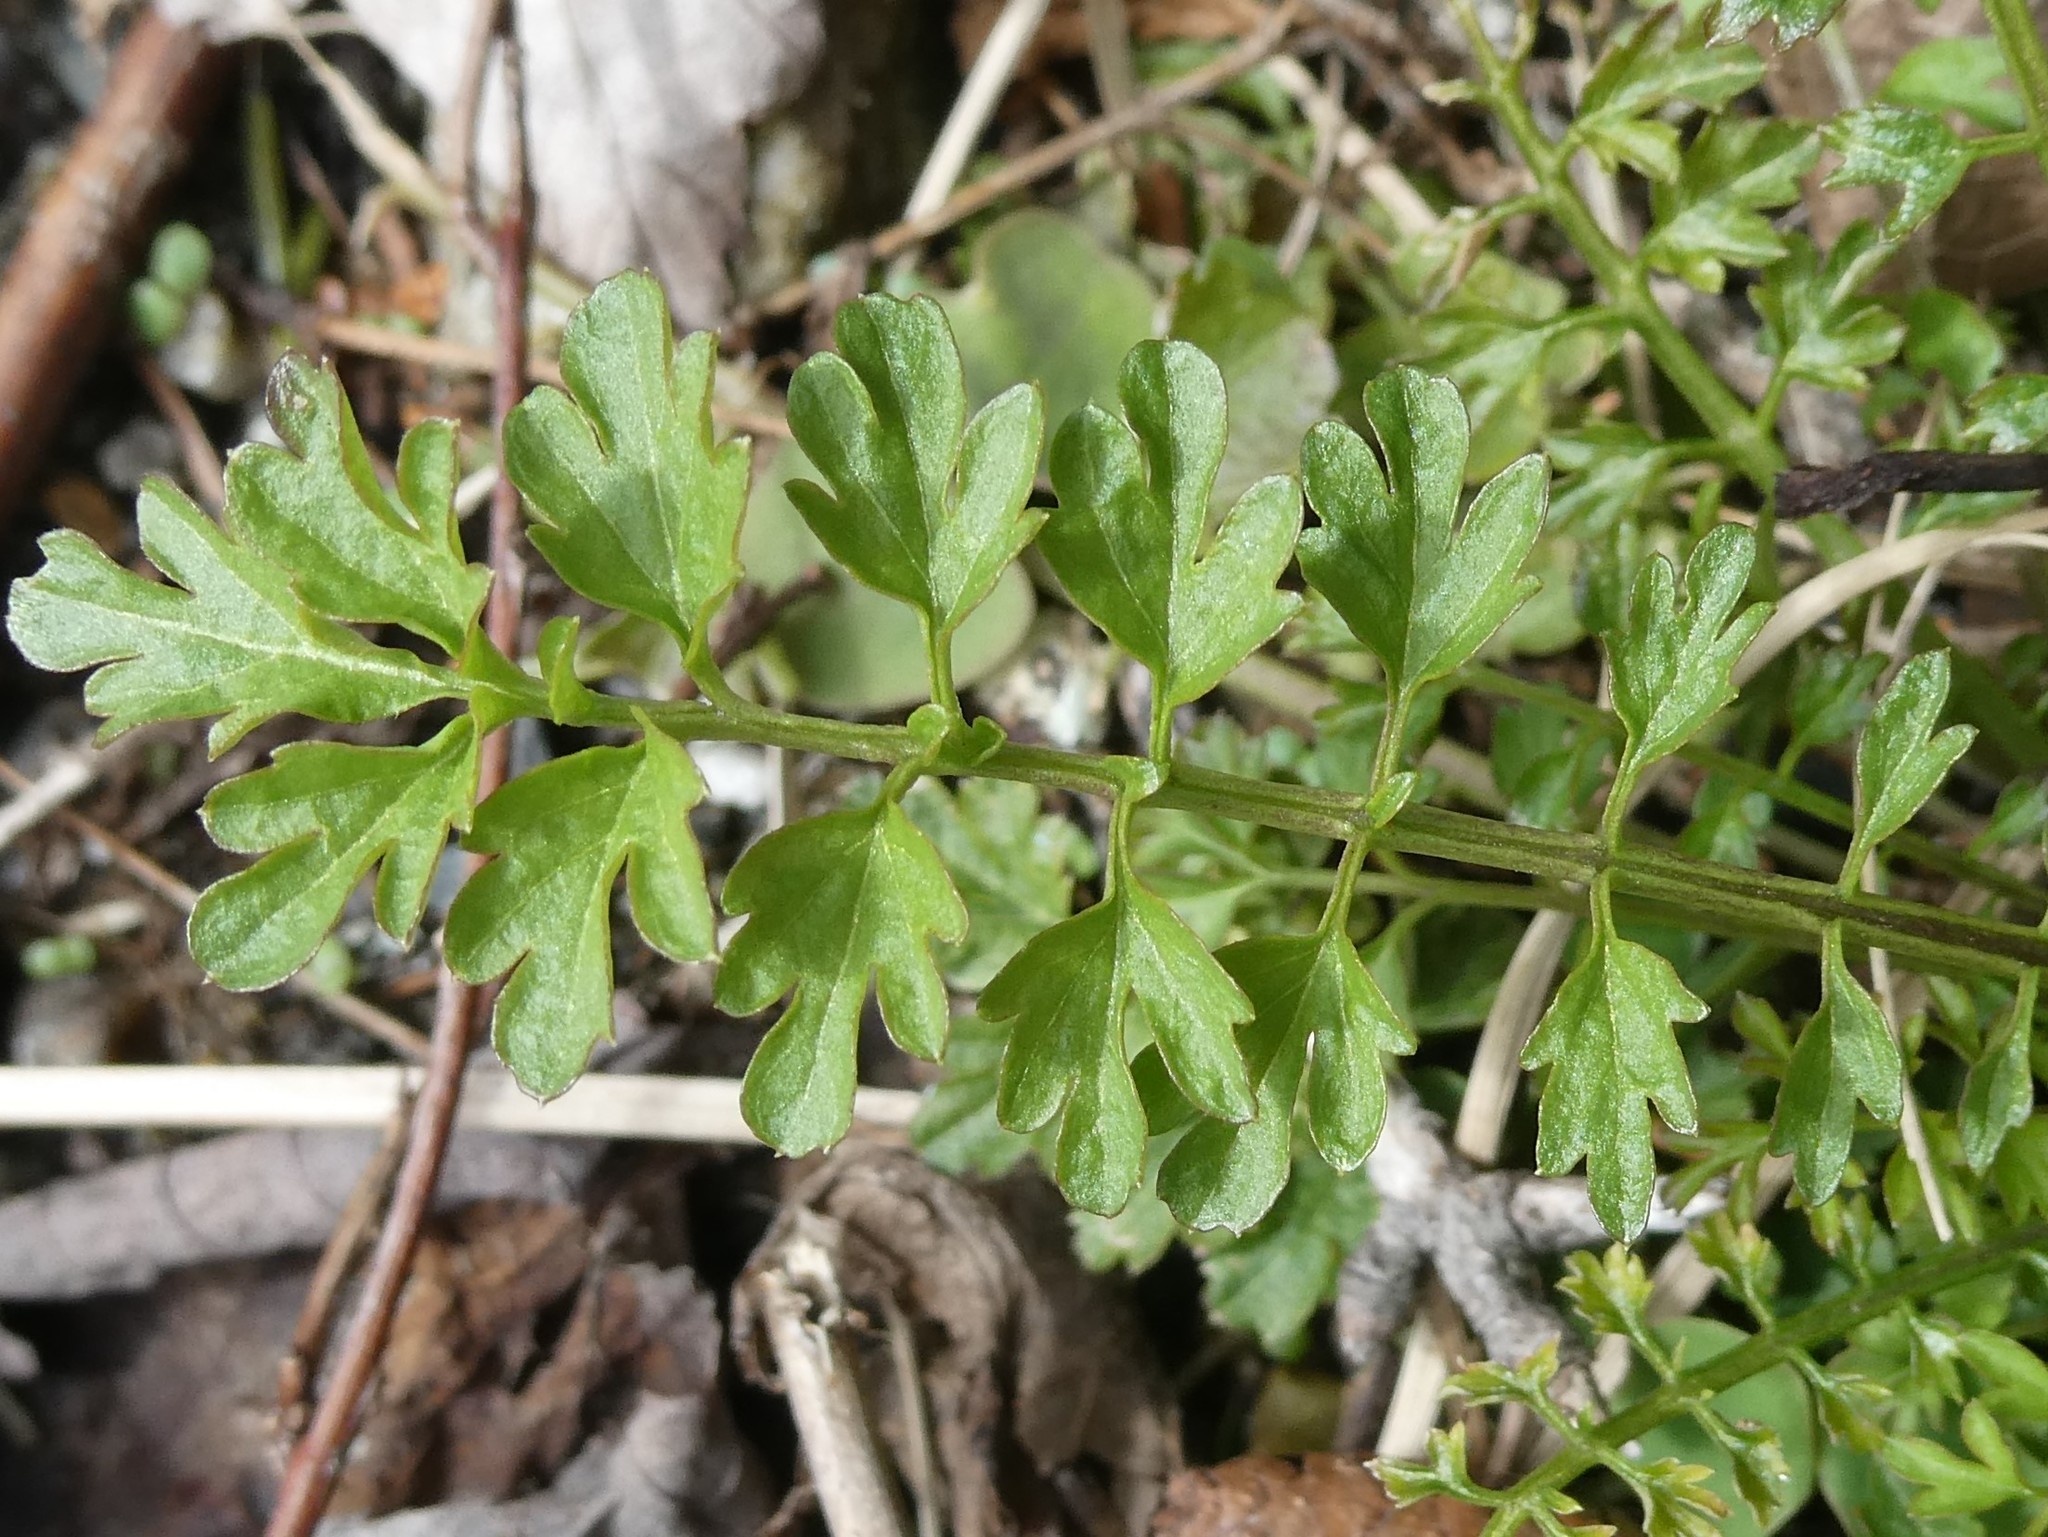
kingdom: Plantae
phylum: Tracheophyta
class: Magnoliopsida
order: Brassicales
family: Brassicaceae
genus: Cardamine
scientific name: Cardamine impatiens
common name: Narrow-leaved bitter-cress
